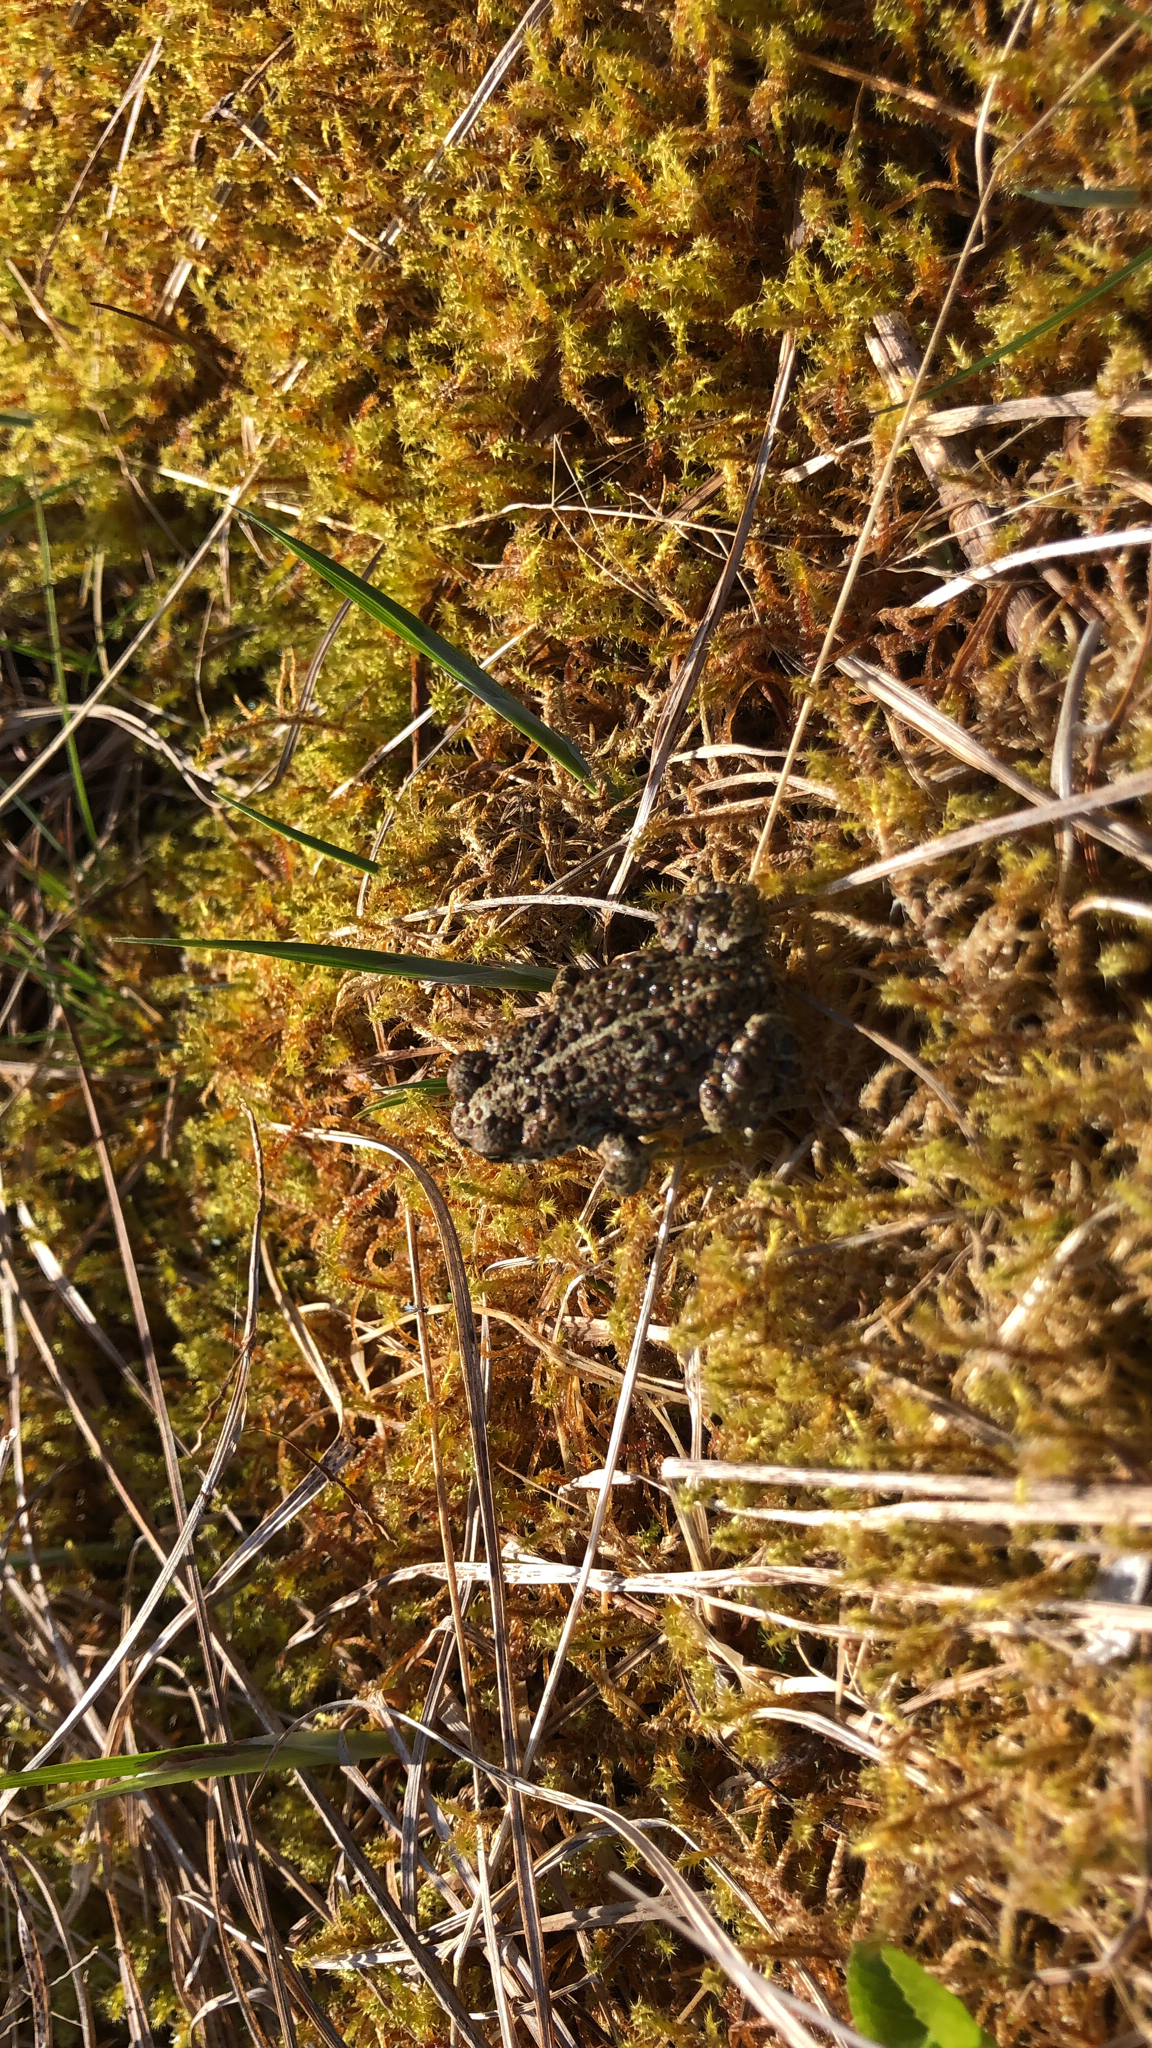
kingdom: Animalia
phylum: Chordata
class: Amphibia
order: Anura
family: Bufonidae
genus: Anaxyrus
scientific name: Anaxyrus boreas
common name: Western toad
